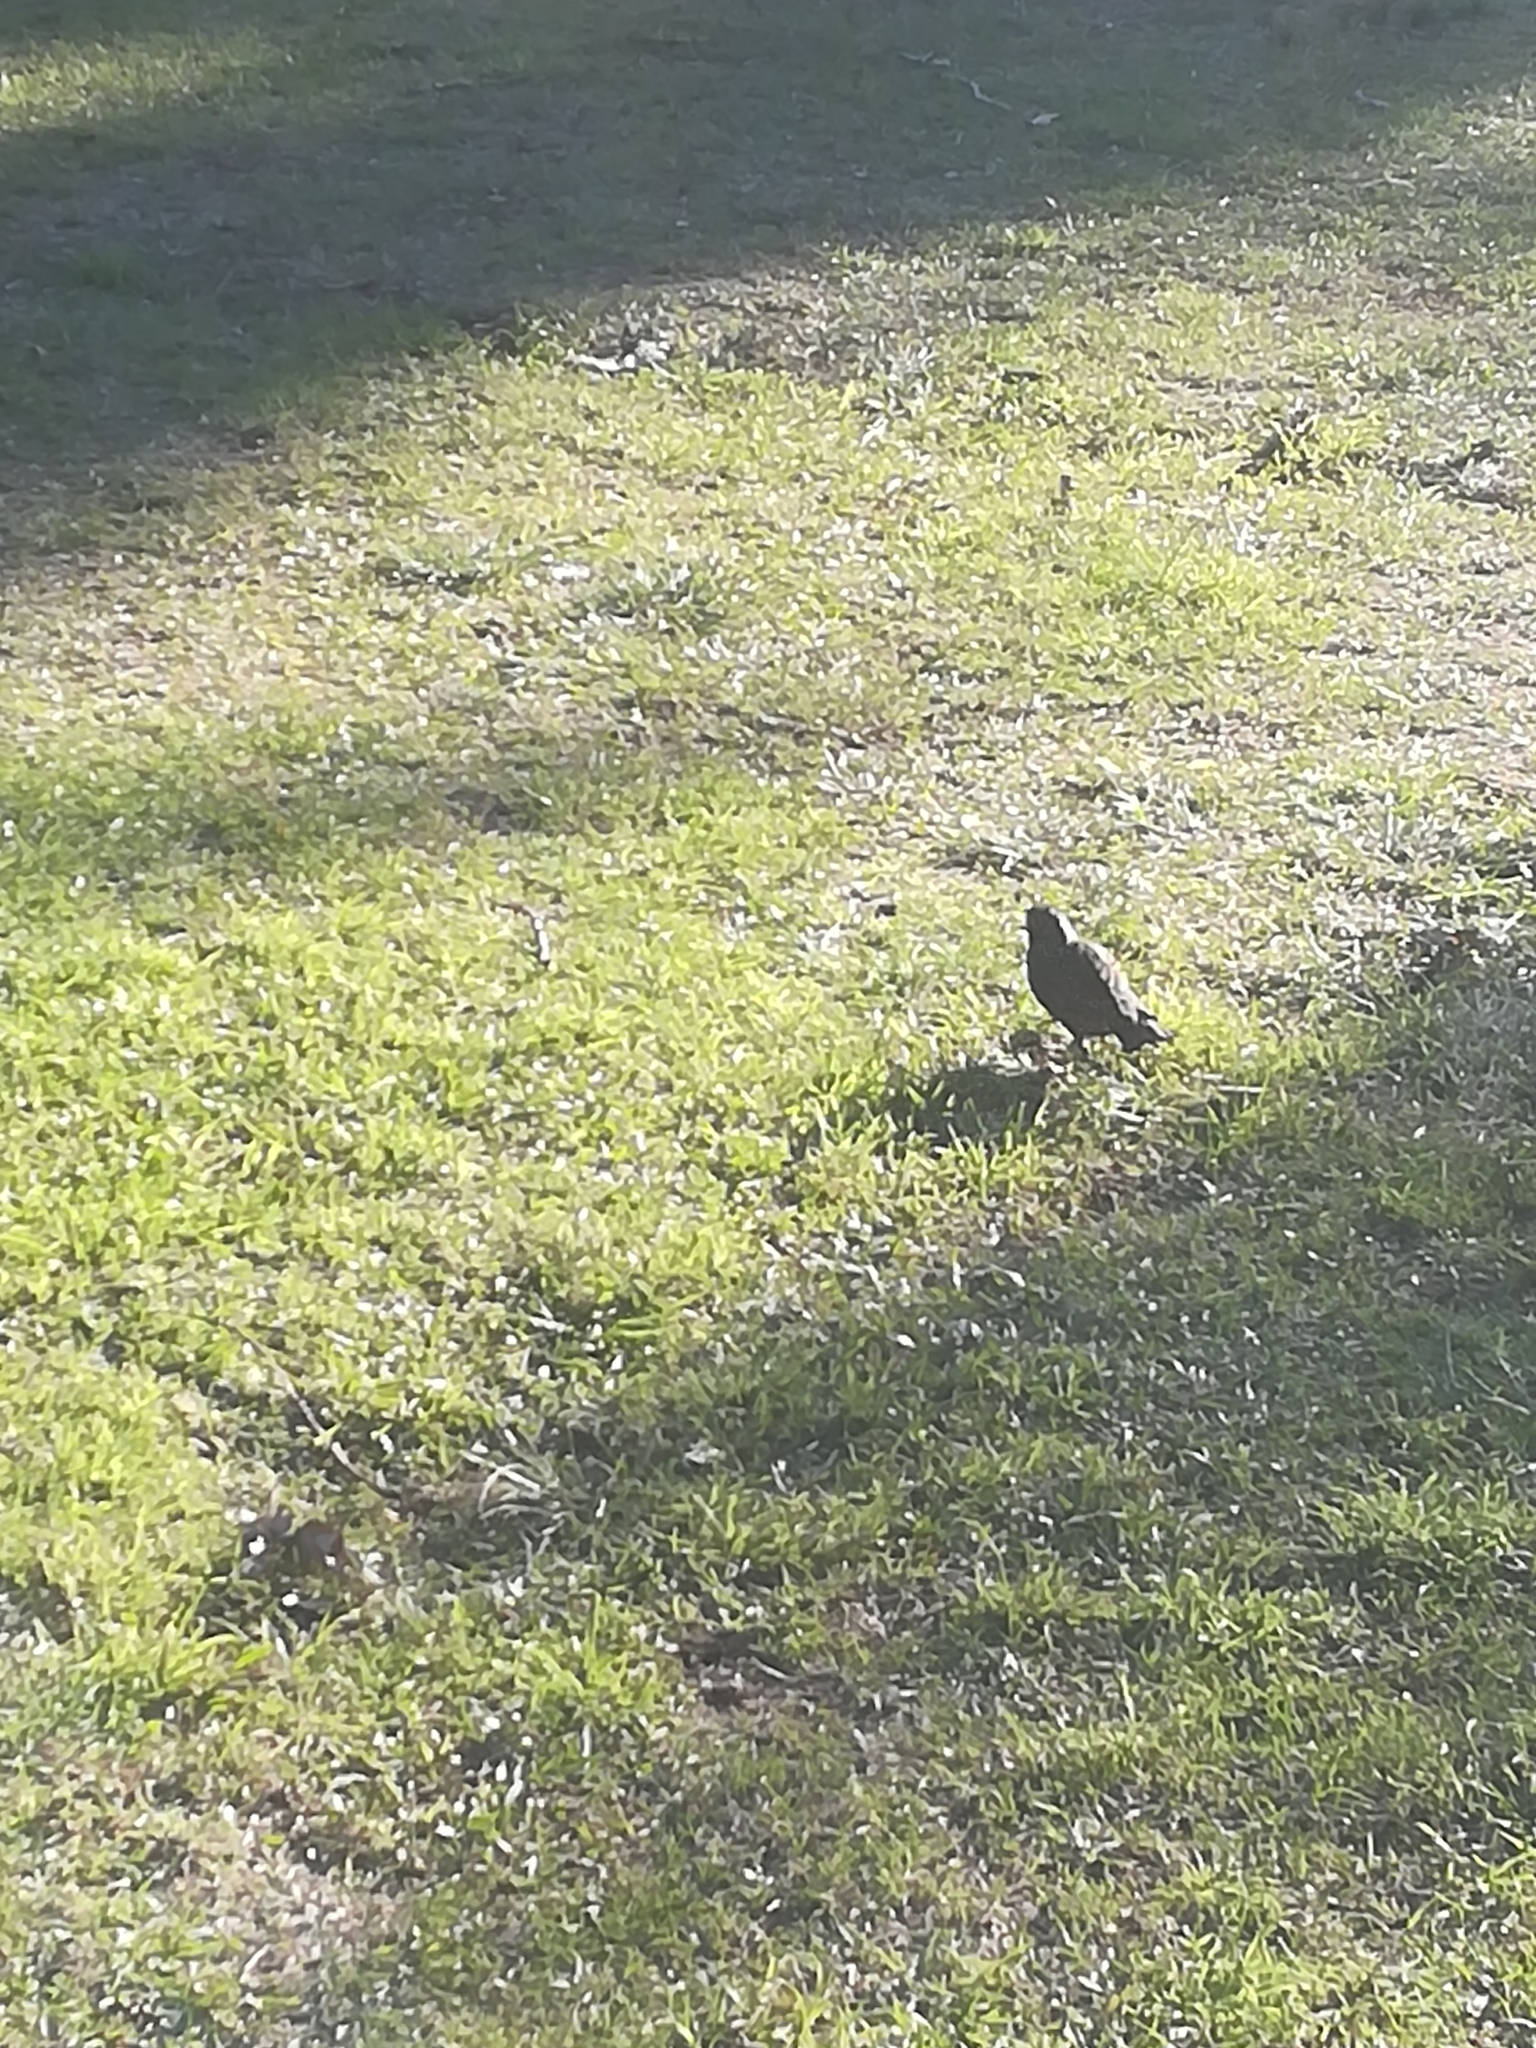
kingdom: Animalia
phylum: Chordata
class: Aves
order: Passeriformes
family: Sturnidae
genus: Sturnus
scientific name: Sturnus vulgaris
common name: Common starling
